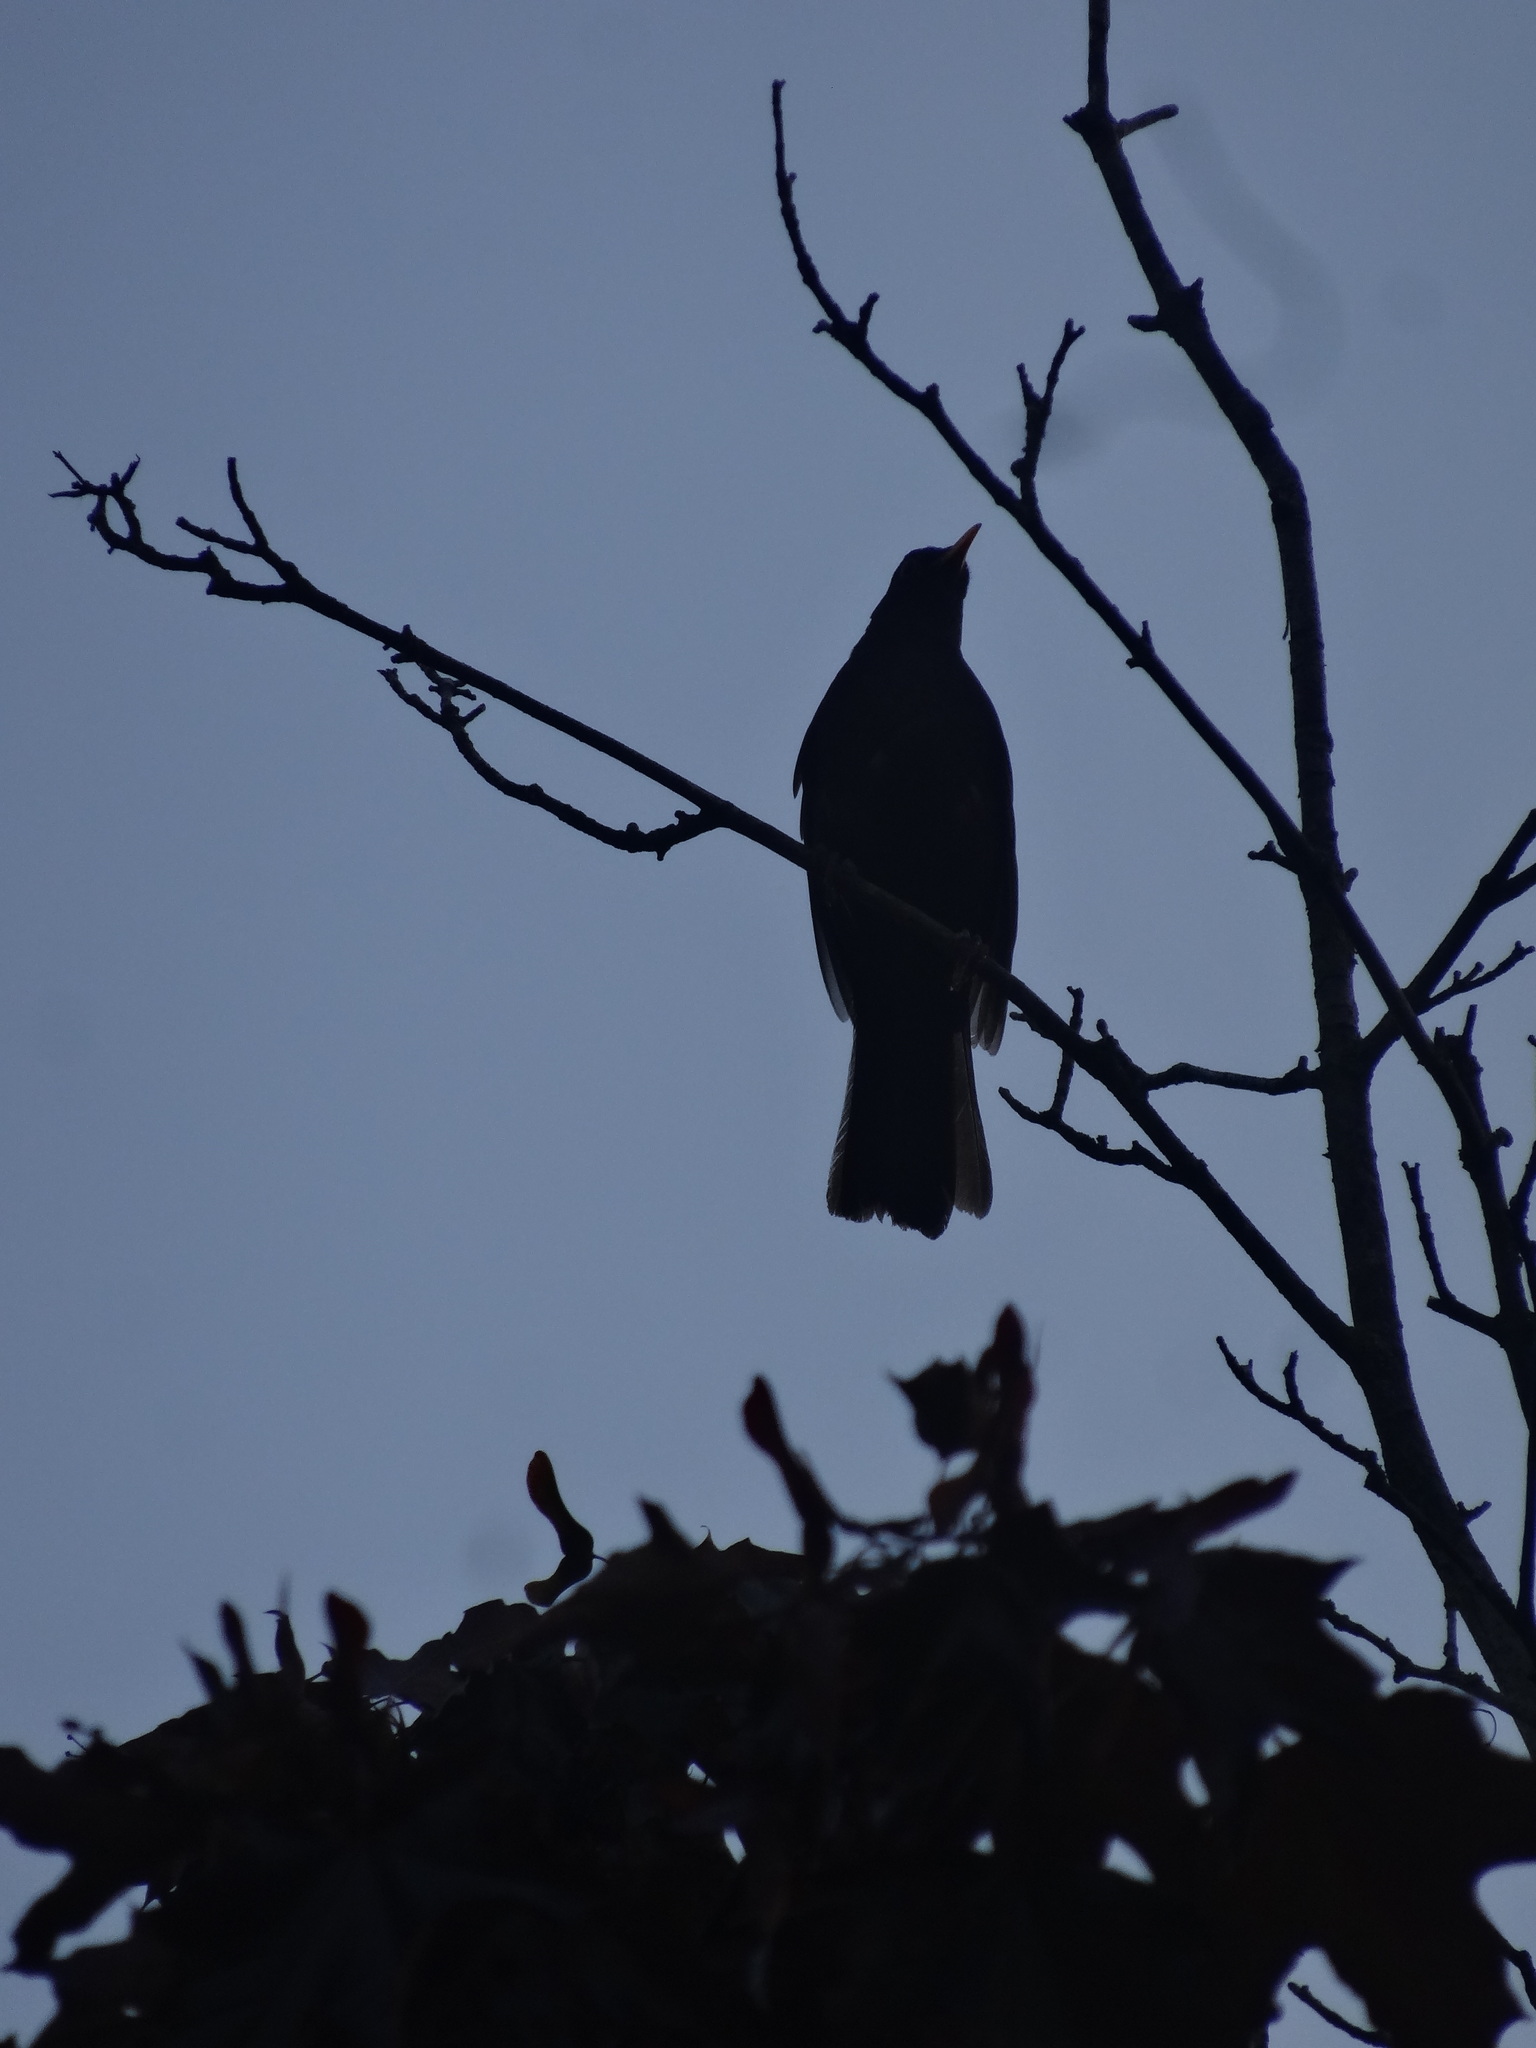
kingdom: Animalia
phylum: Chordata
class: Aves
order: Passeriformes
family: Turdidae
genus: Turdus
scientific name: Turdus merula
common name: Common blackbird
